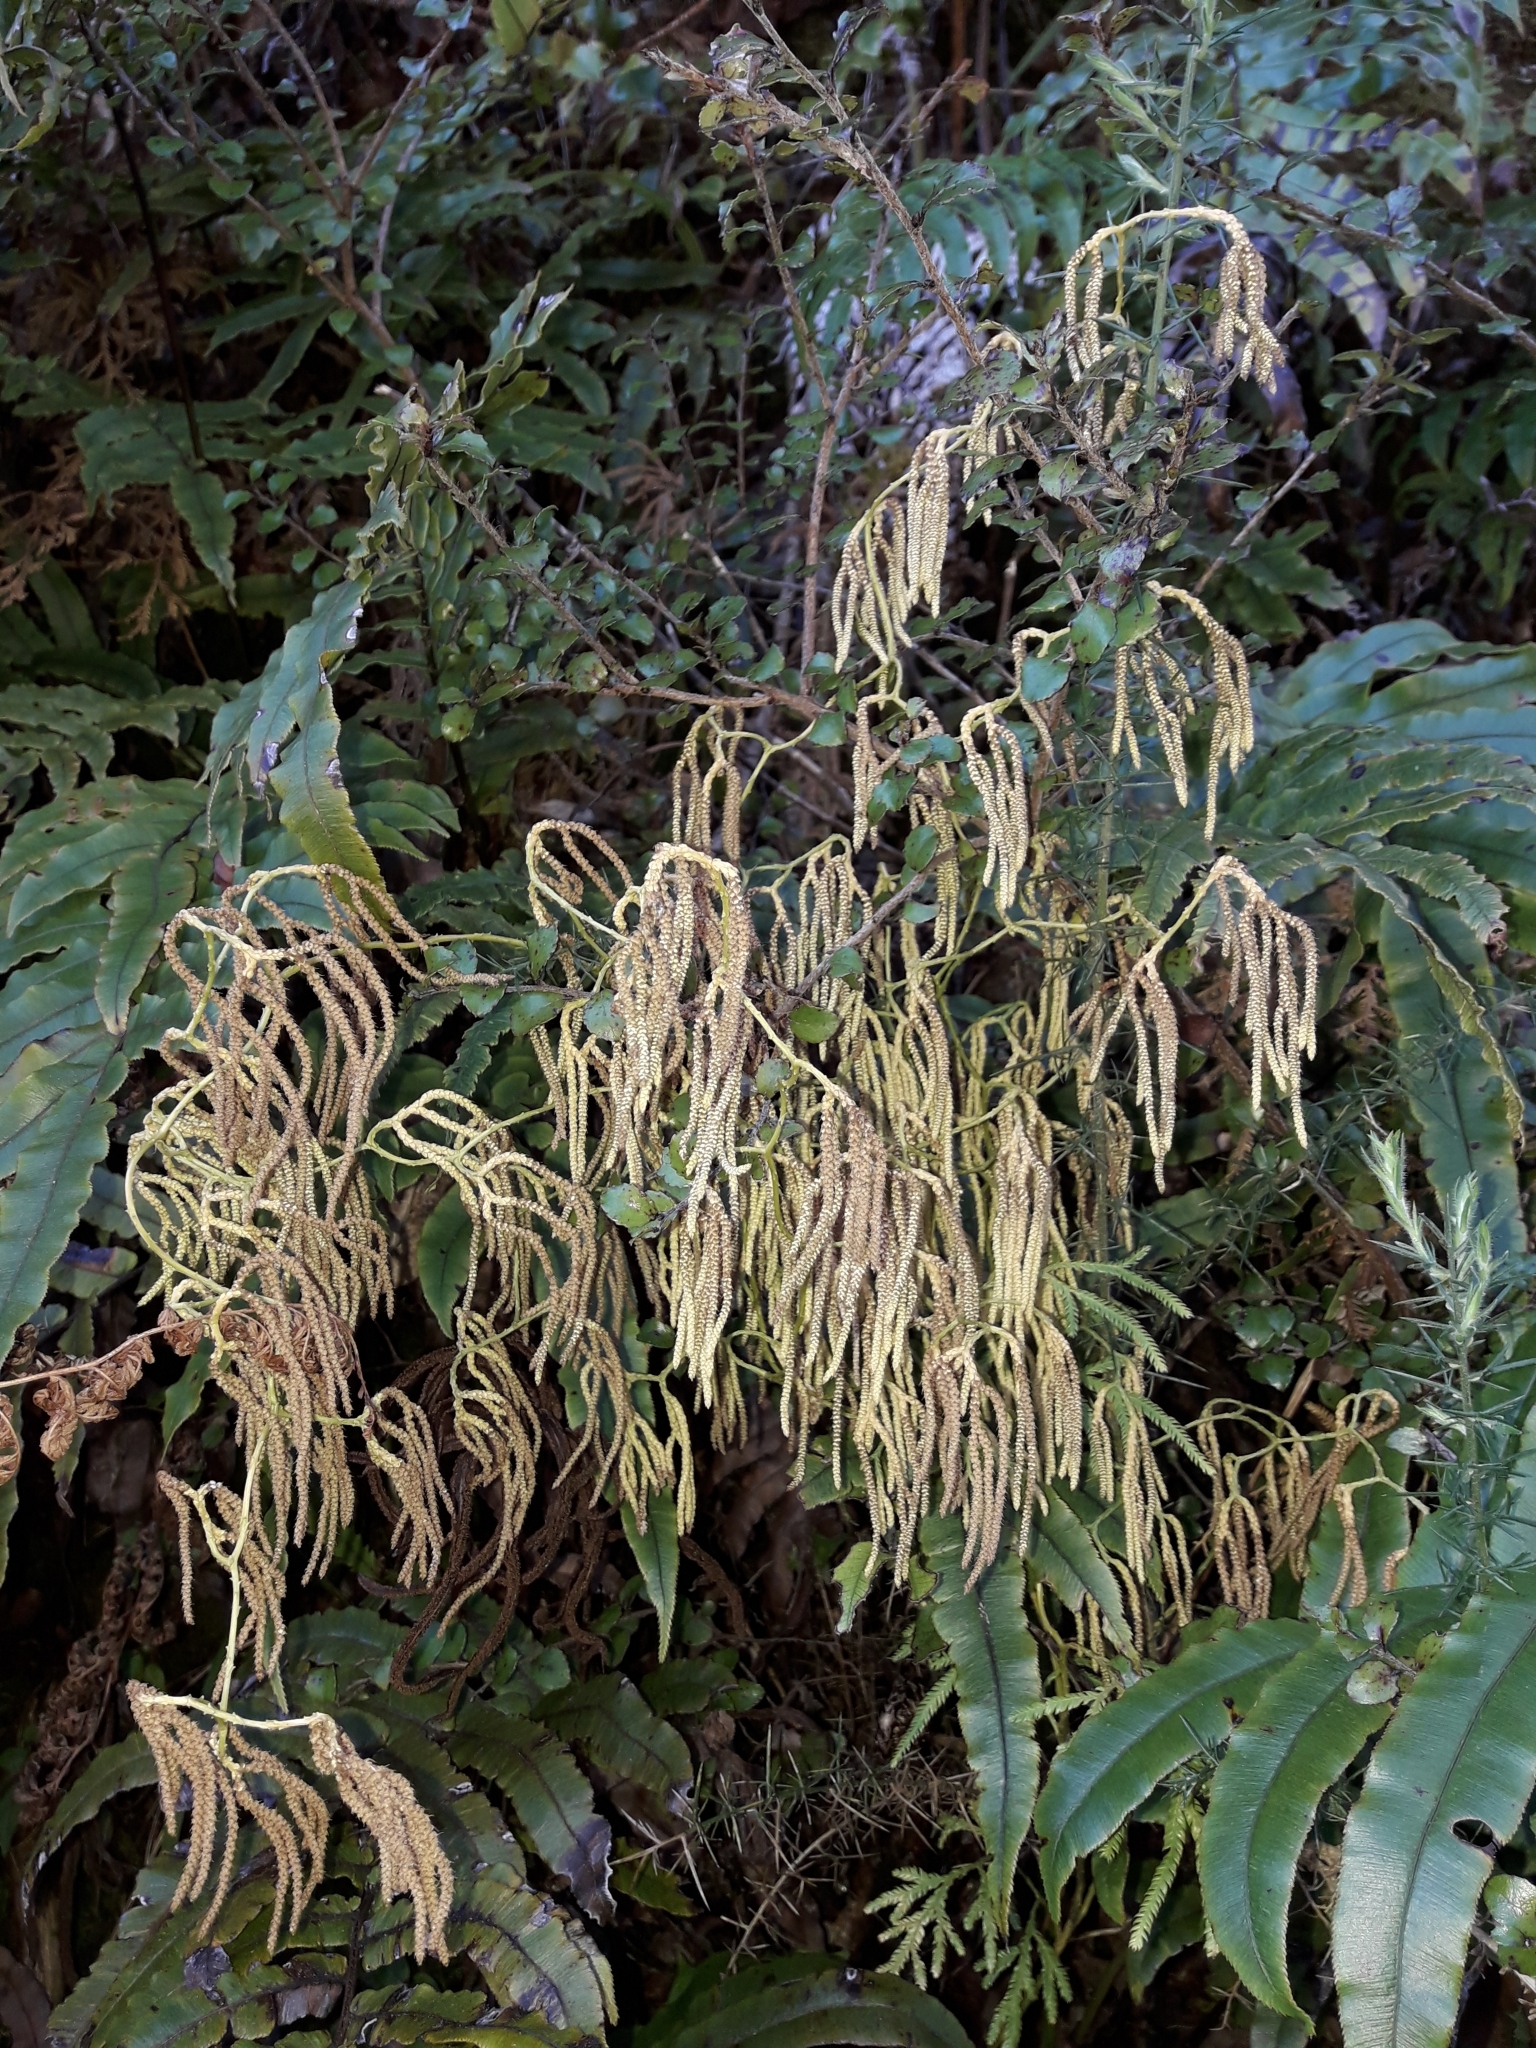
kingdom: Plantae
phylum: Tracheophyta
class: Lycopodiopsida
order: Lycopodiales
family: Lycopodiaceae
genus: Lycopodium
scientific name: Lycopodium volubile
